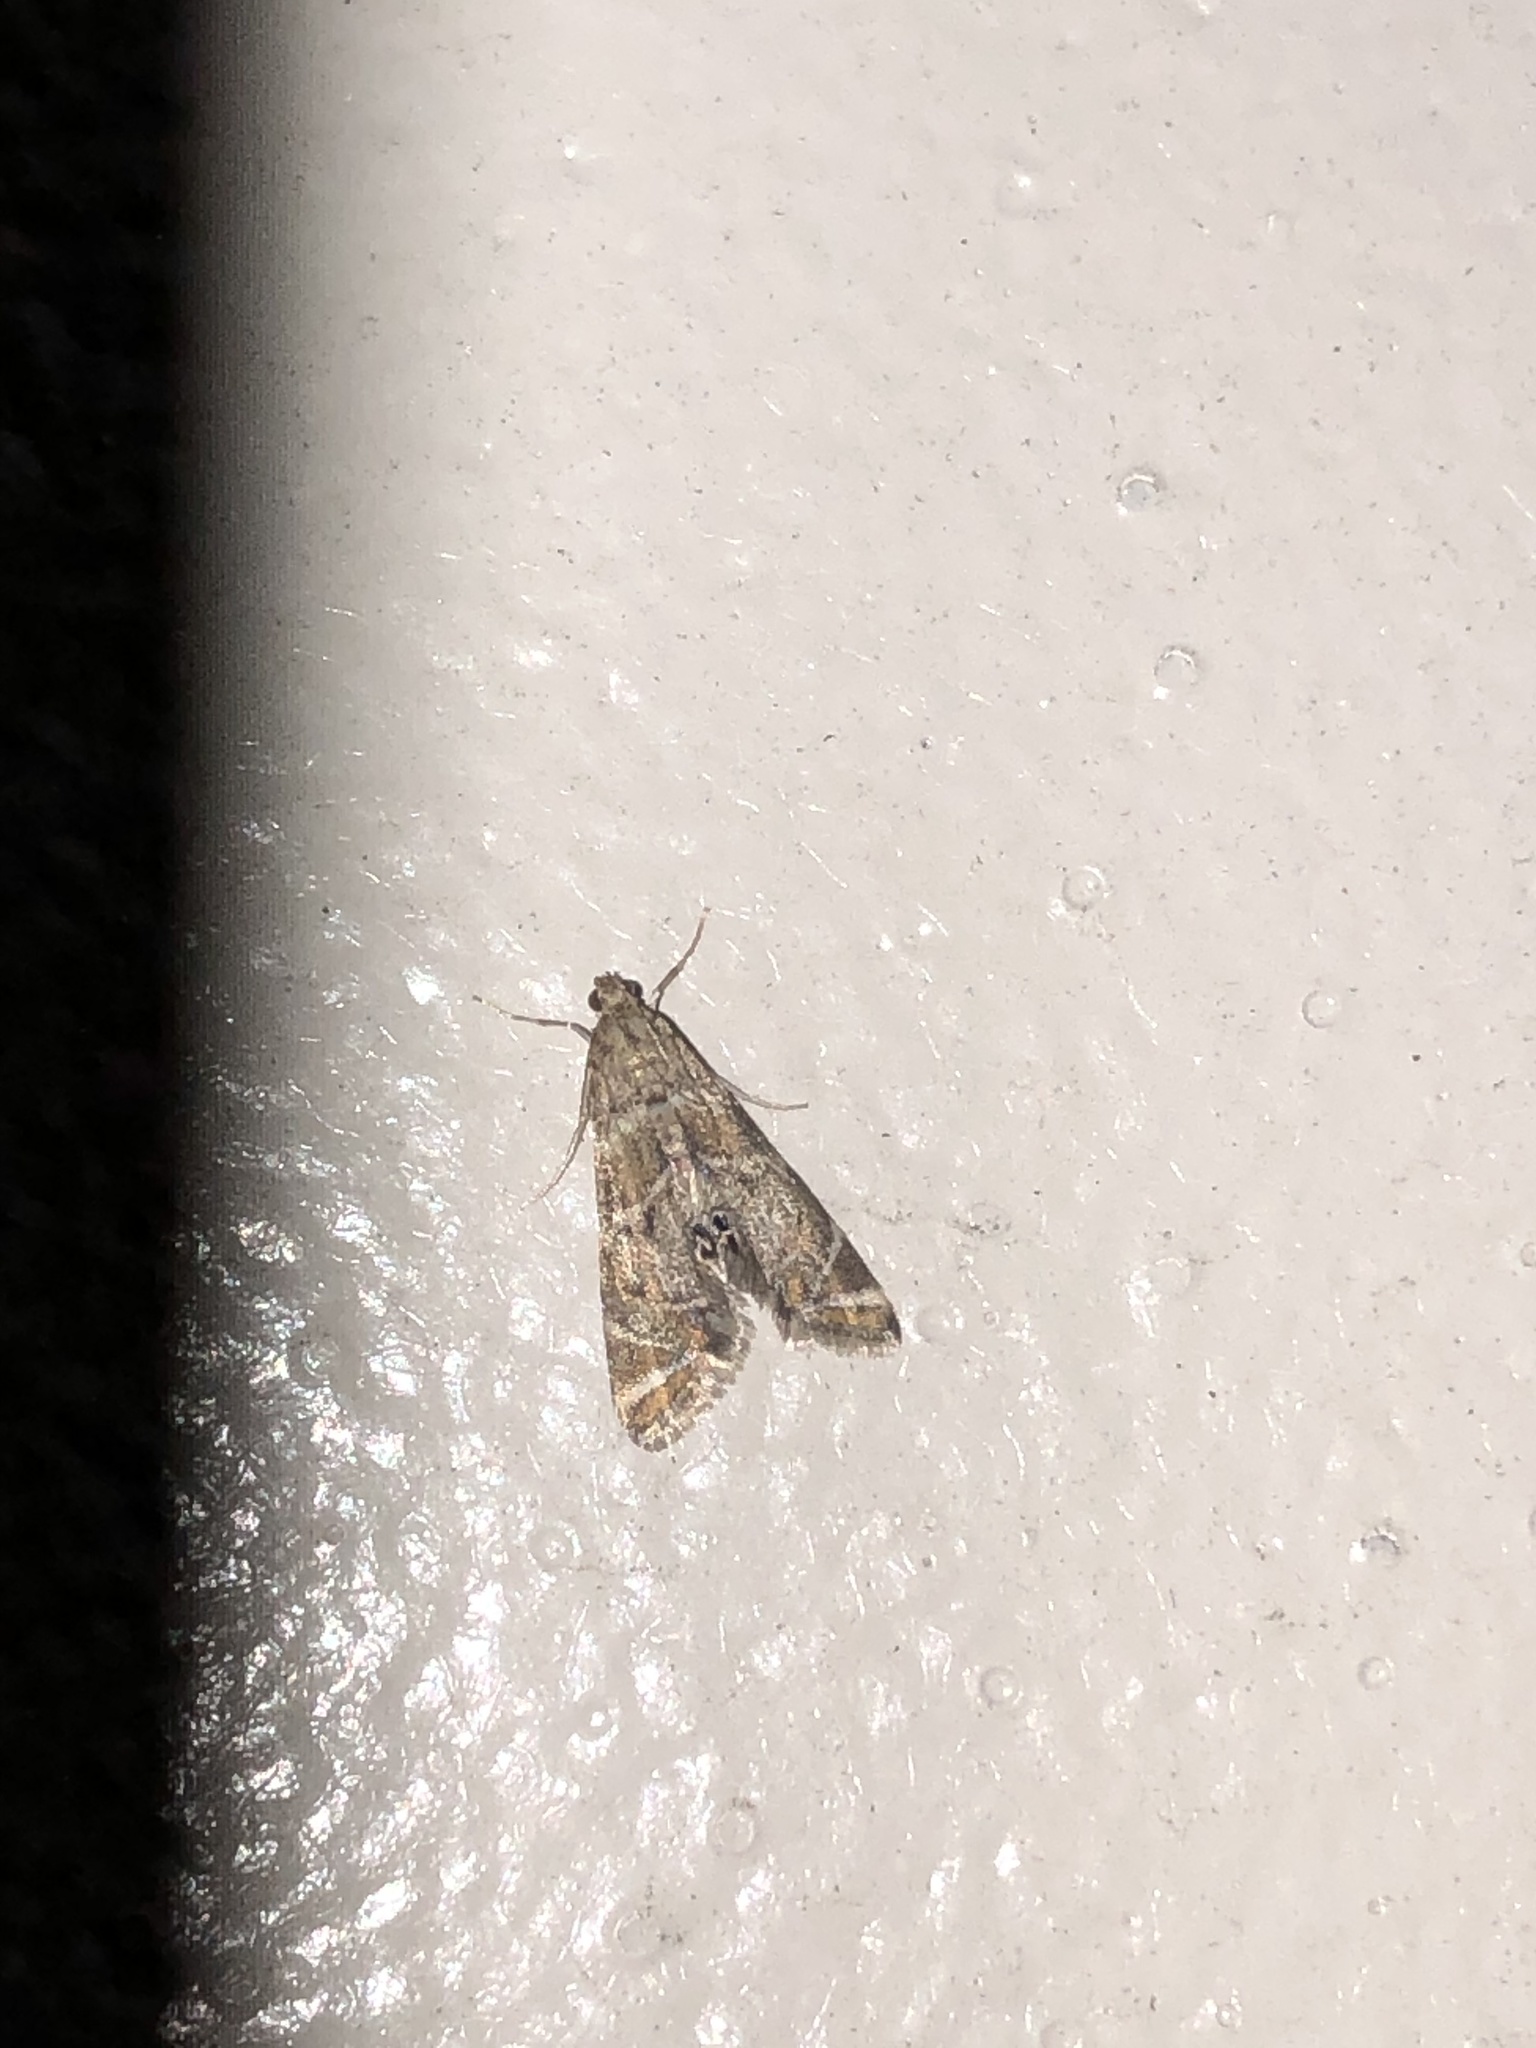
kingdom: Animalia
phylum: Arthropoda
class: Insecta
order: Lepidoptera
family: Crambidae
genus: Petrophila
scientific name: Petrophila confusalis
